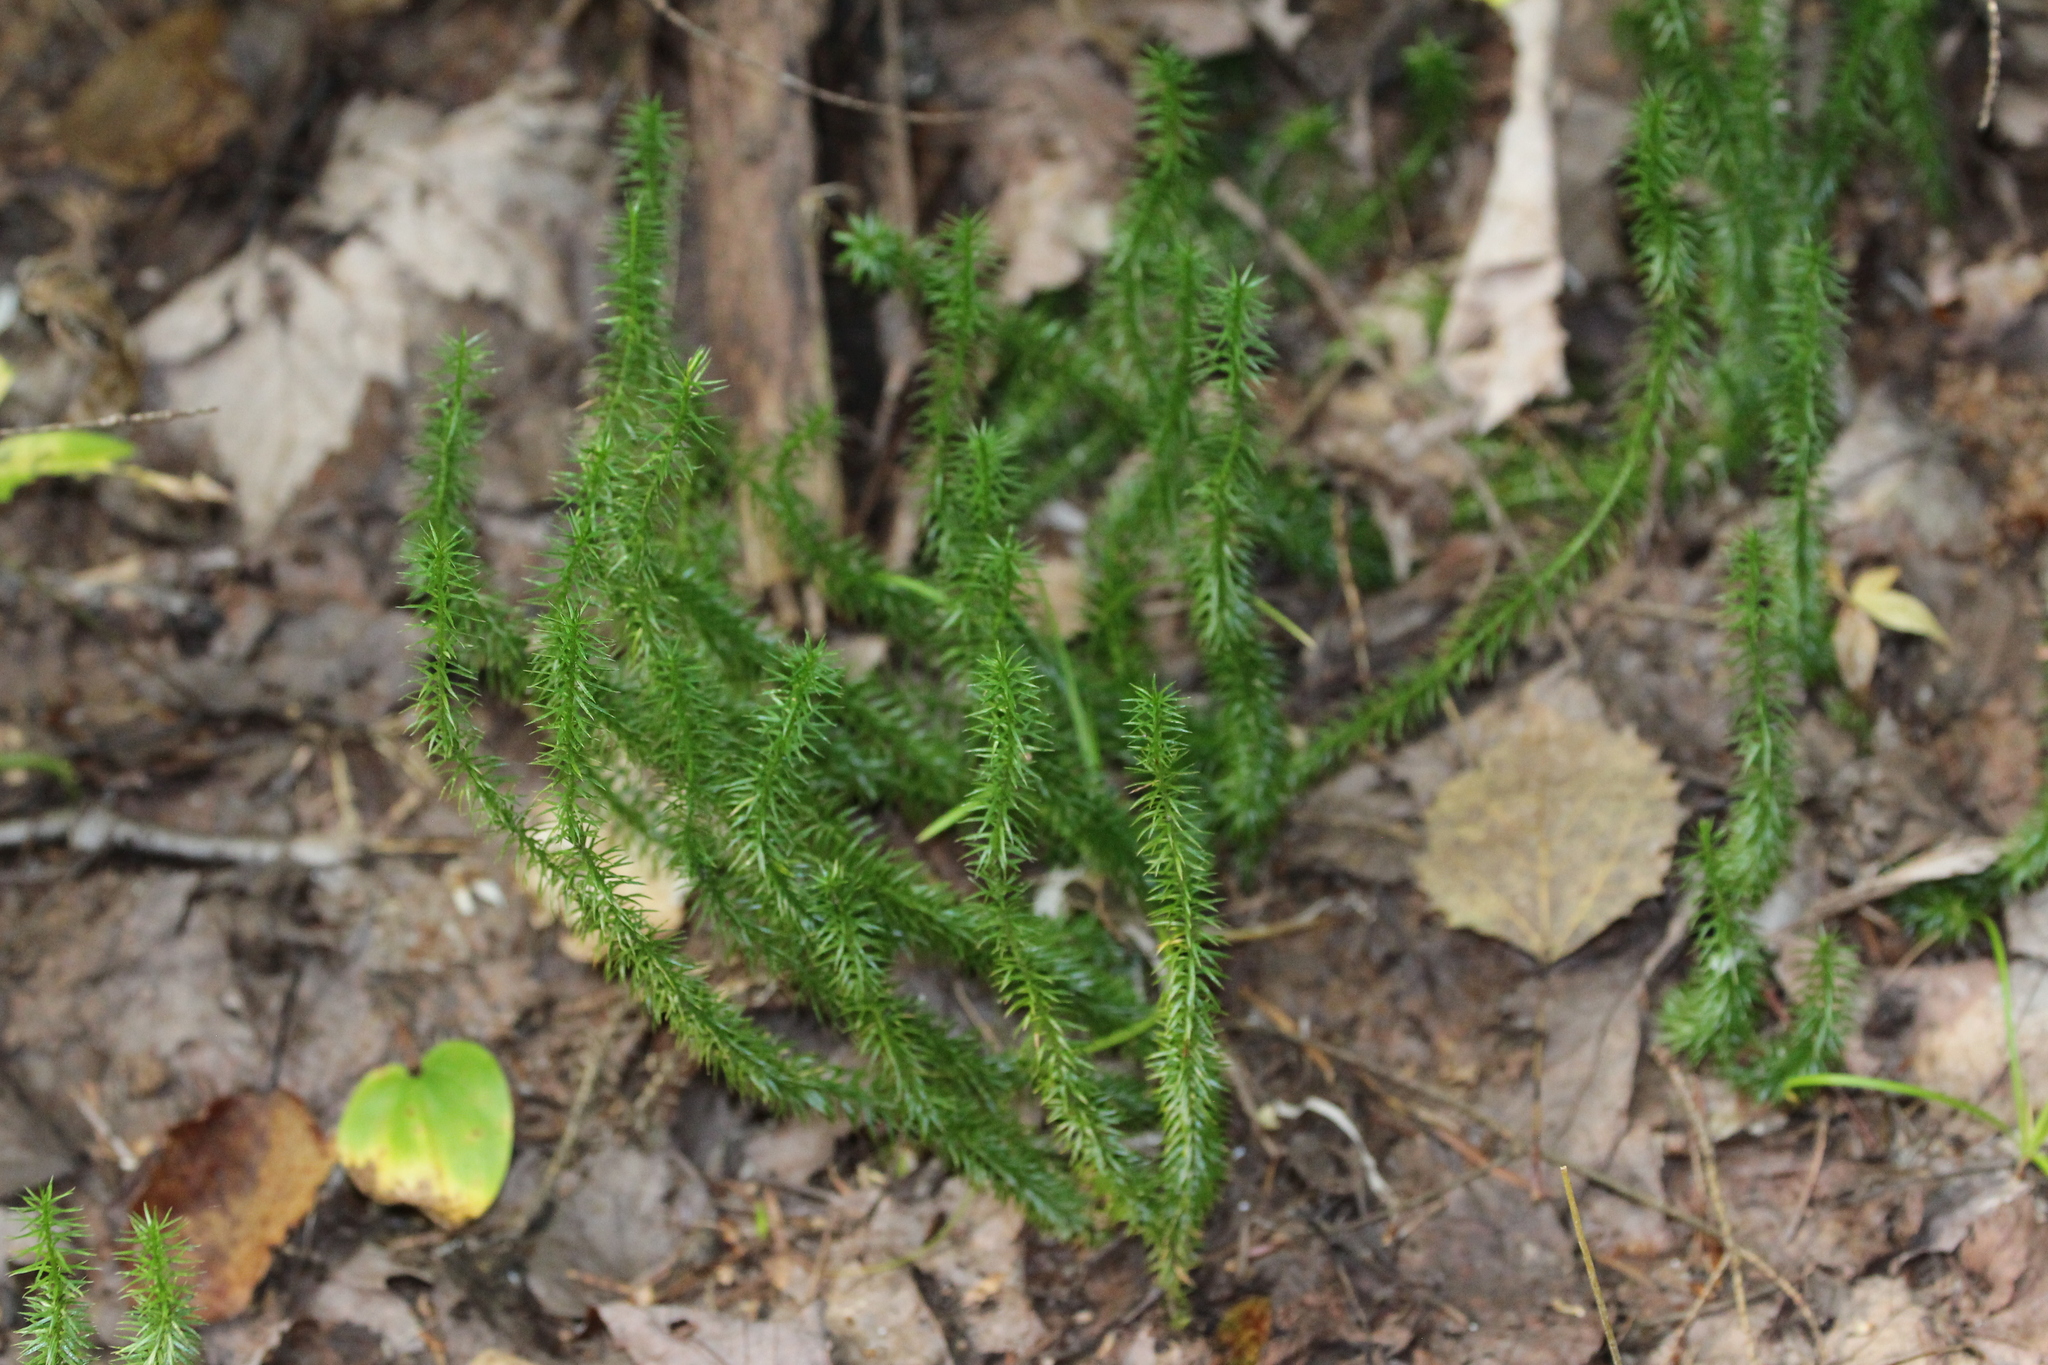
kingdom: Plantae
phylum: Tracheophyta
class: Lycopodiopsida
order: Lycopodiales
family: Lycopodiaceae
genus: Spinulum
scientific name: Spinulum annotinum
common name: Interrupted club-moss
